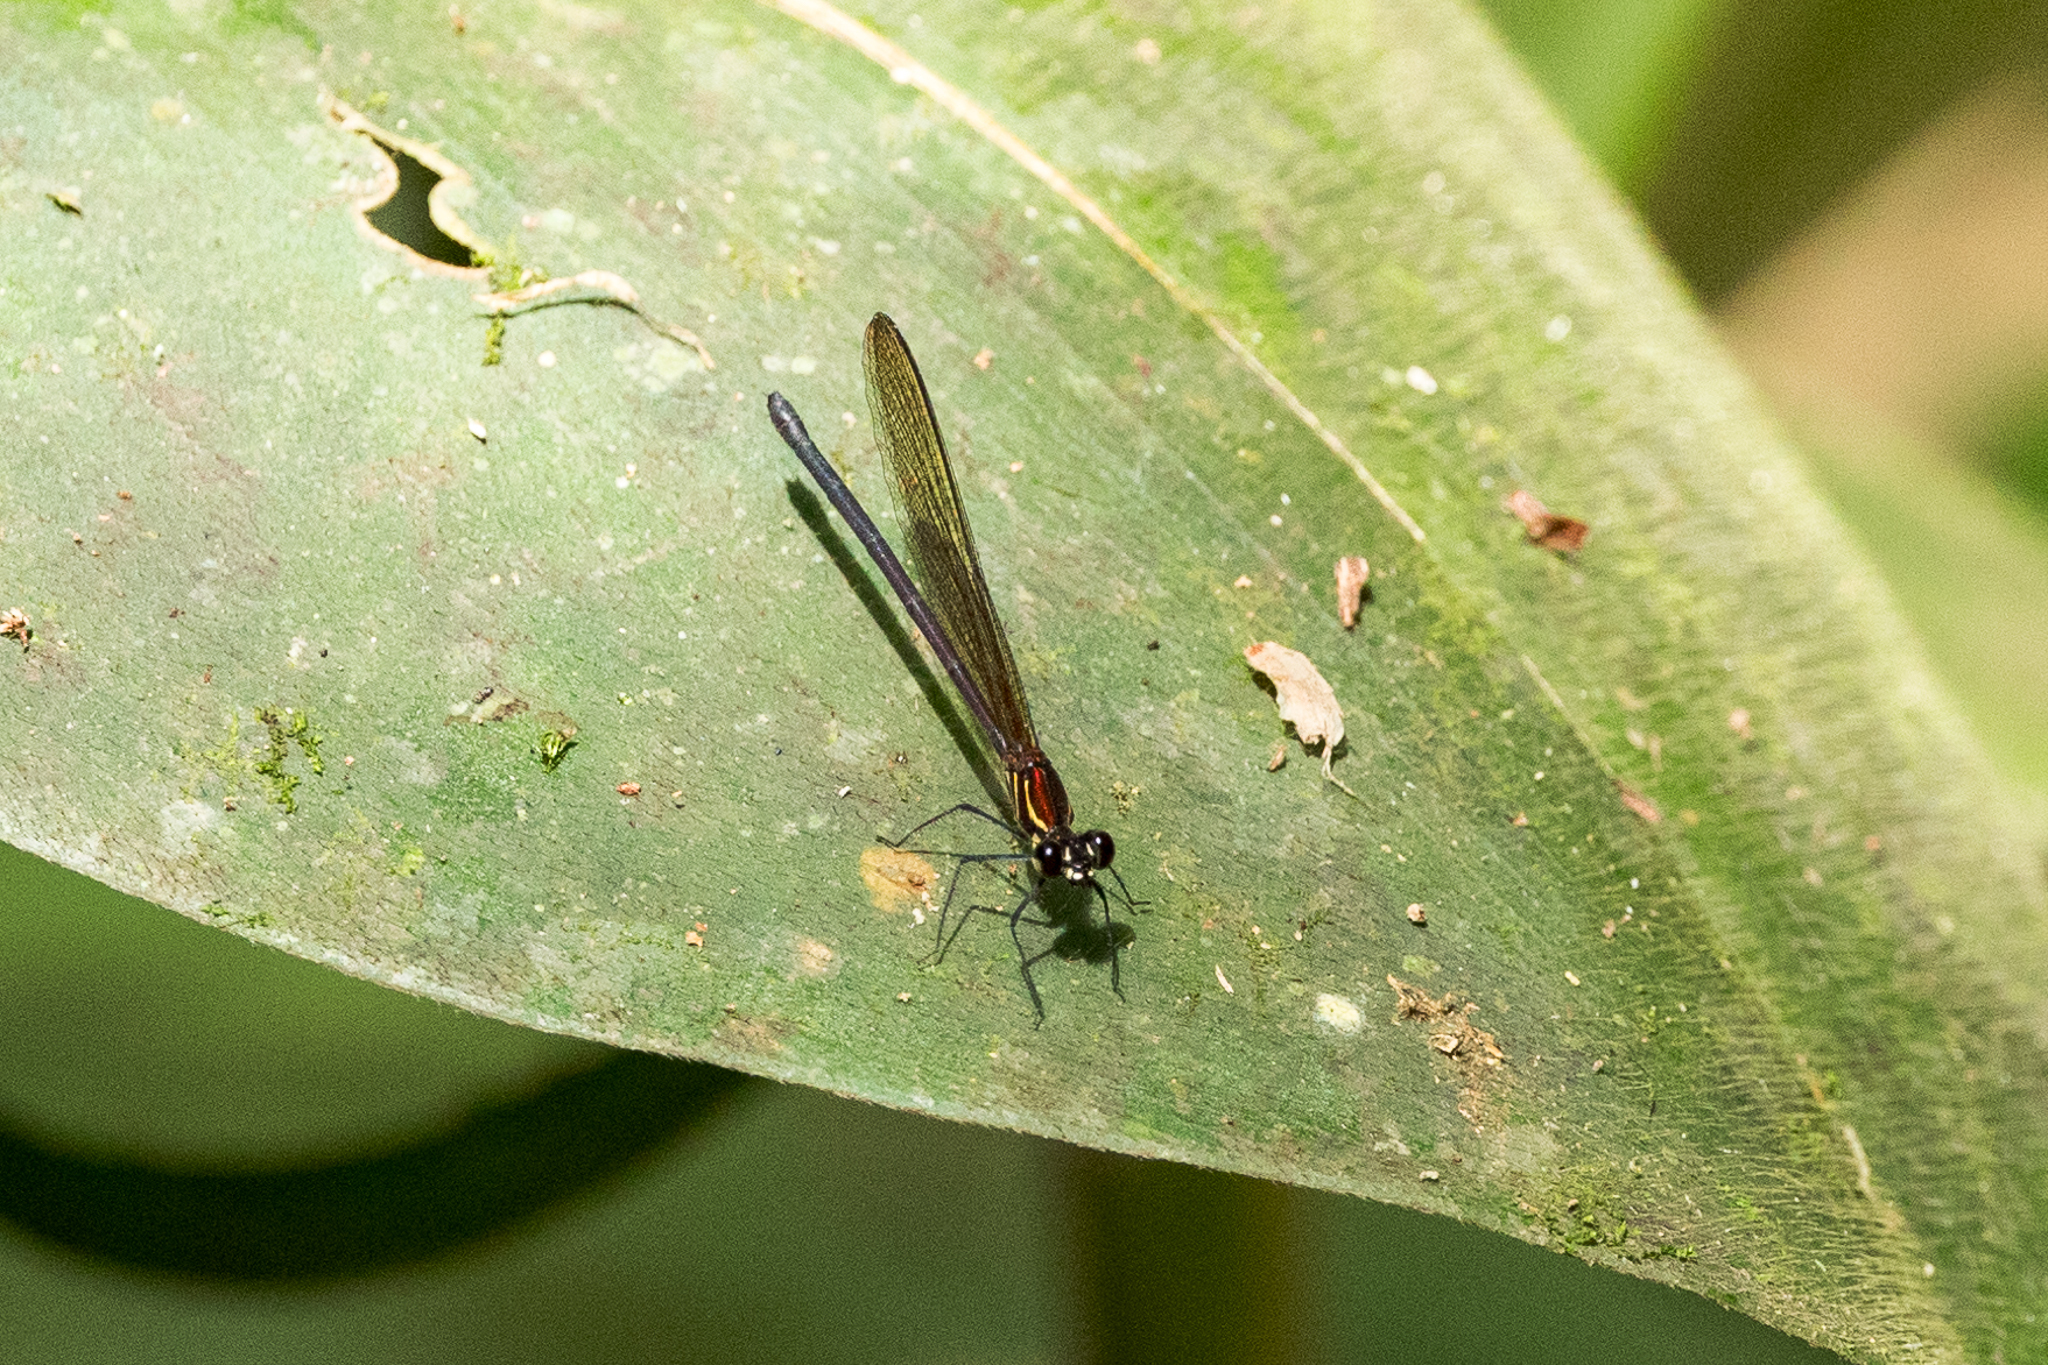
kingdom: Animalia
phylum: Arthropoda
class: Insecta
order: Odonata
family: Calopterygidae
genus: Hetaerina
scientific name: Hetaerina miniata
